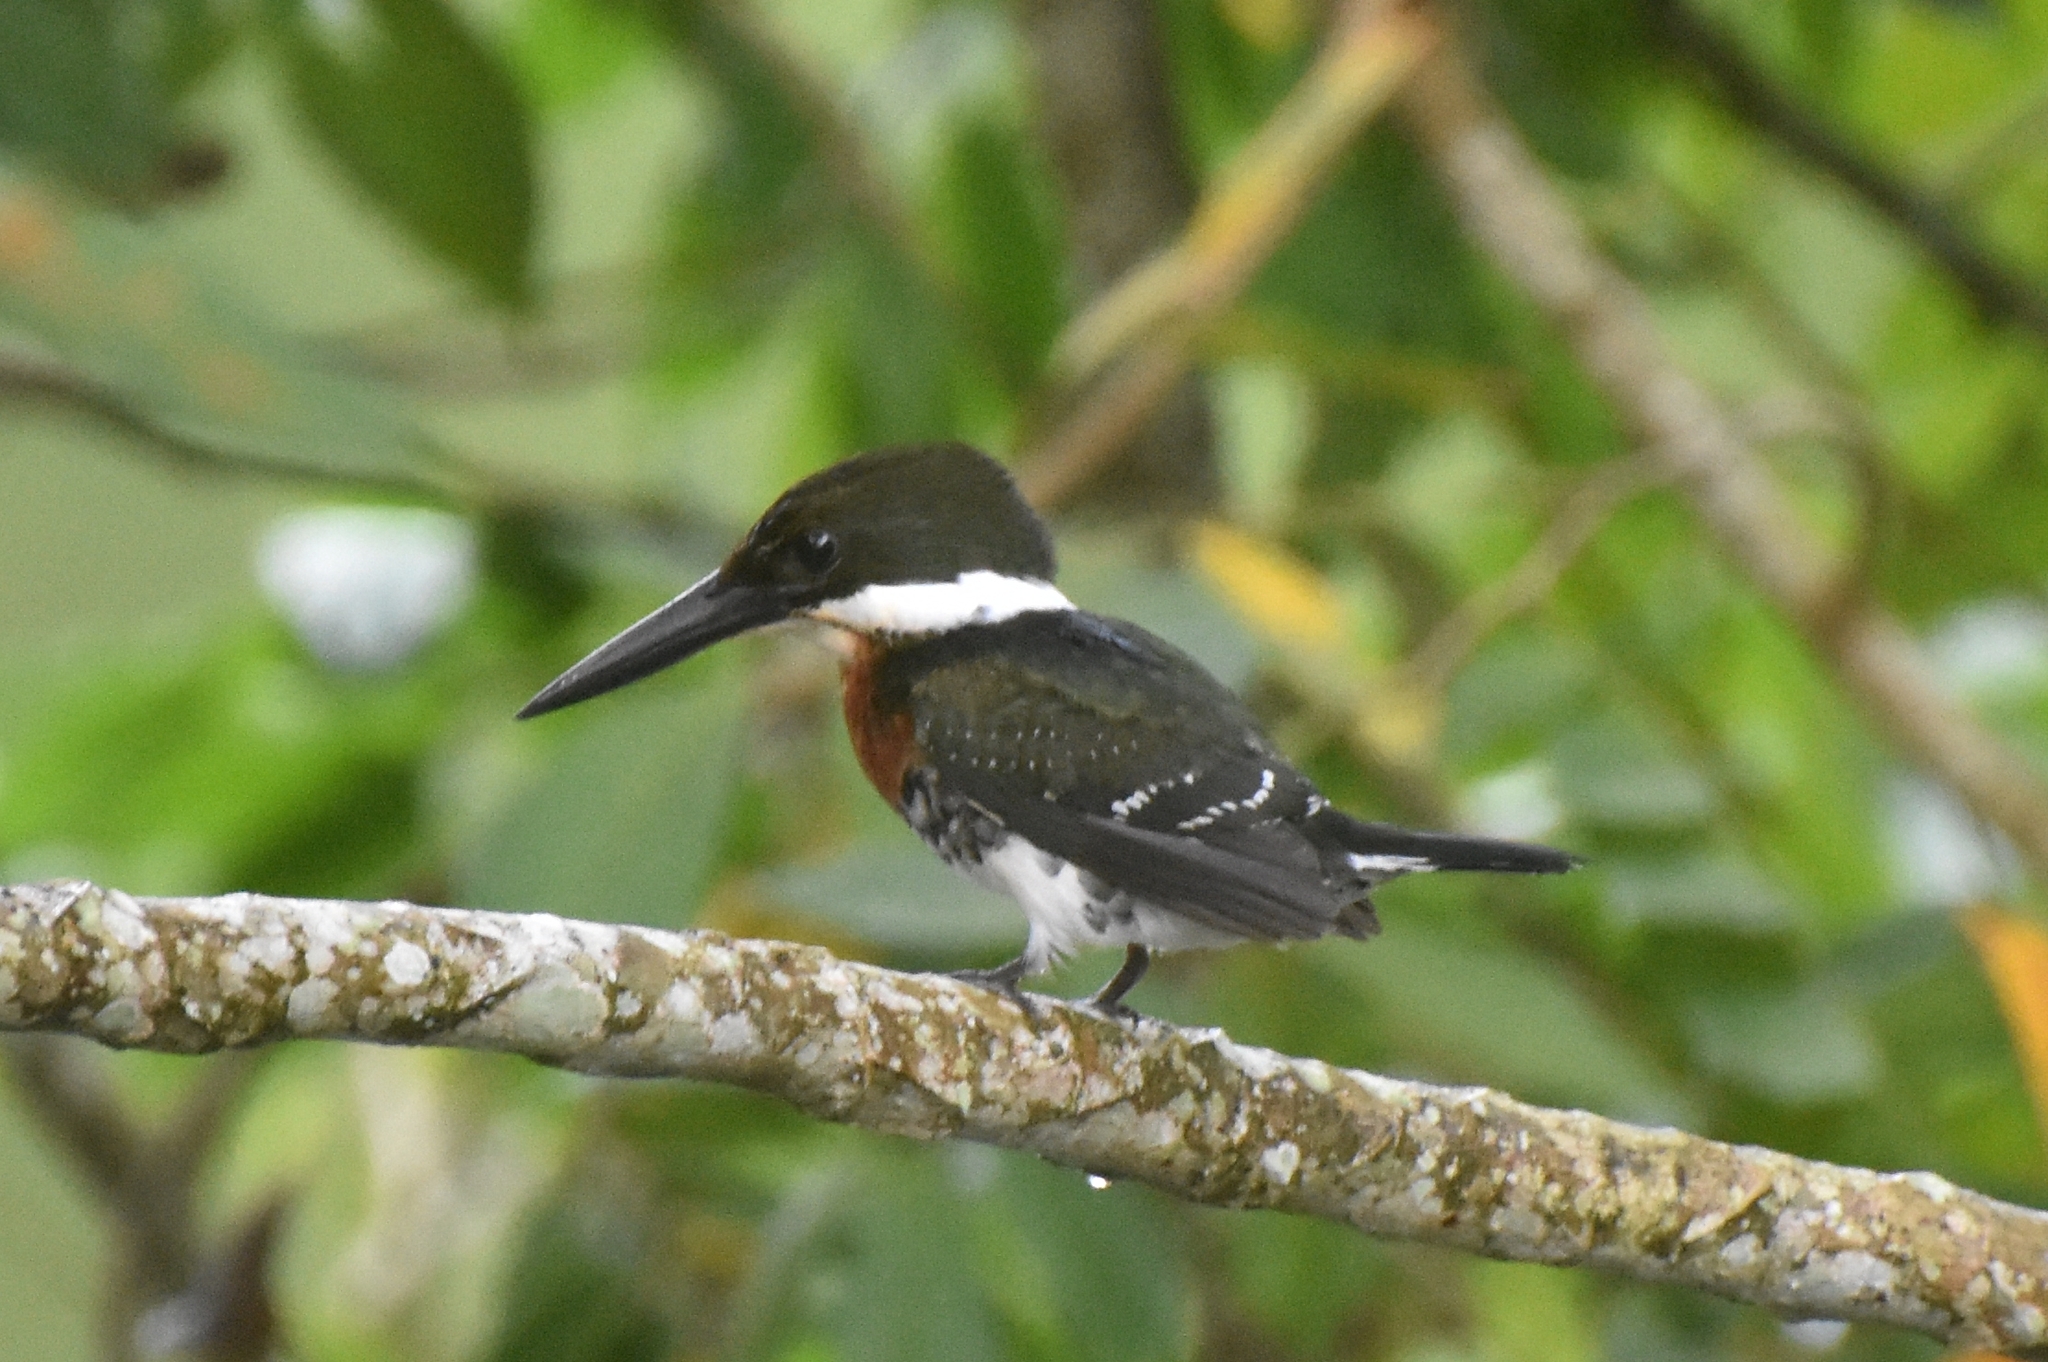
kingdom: Animalia
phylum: Chordata
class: Aves
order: Coraciiformes
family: Alcedinidae
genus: Chloroceryle
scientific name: Chloroceryle americana
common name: Green kingfisher
